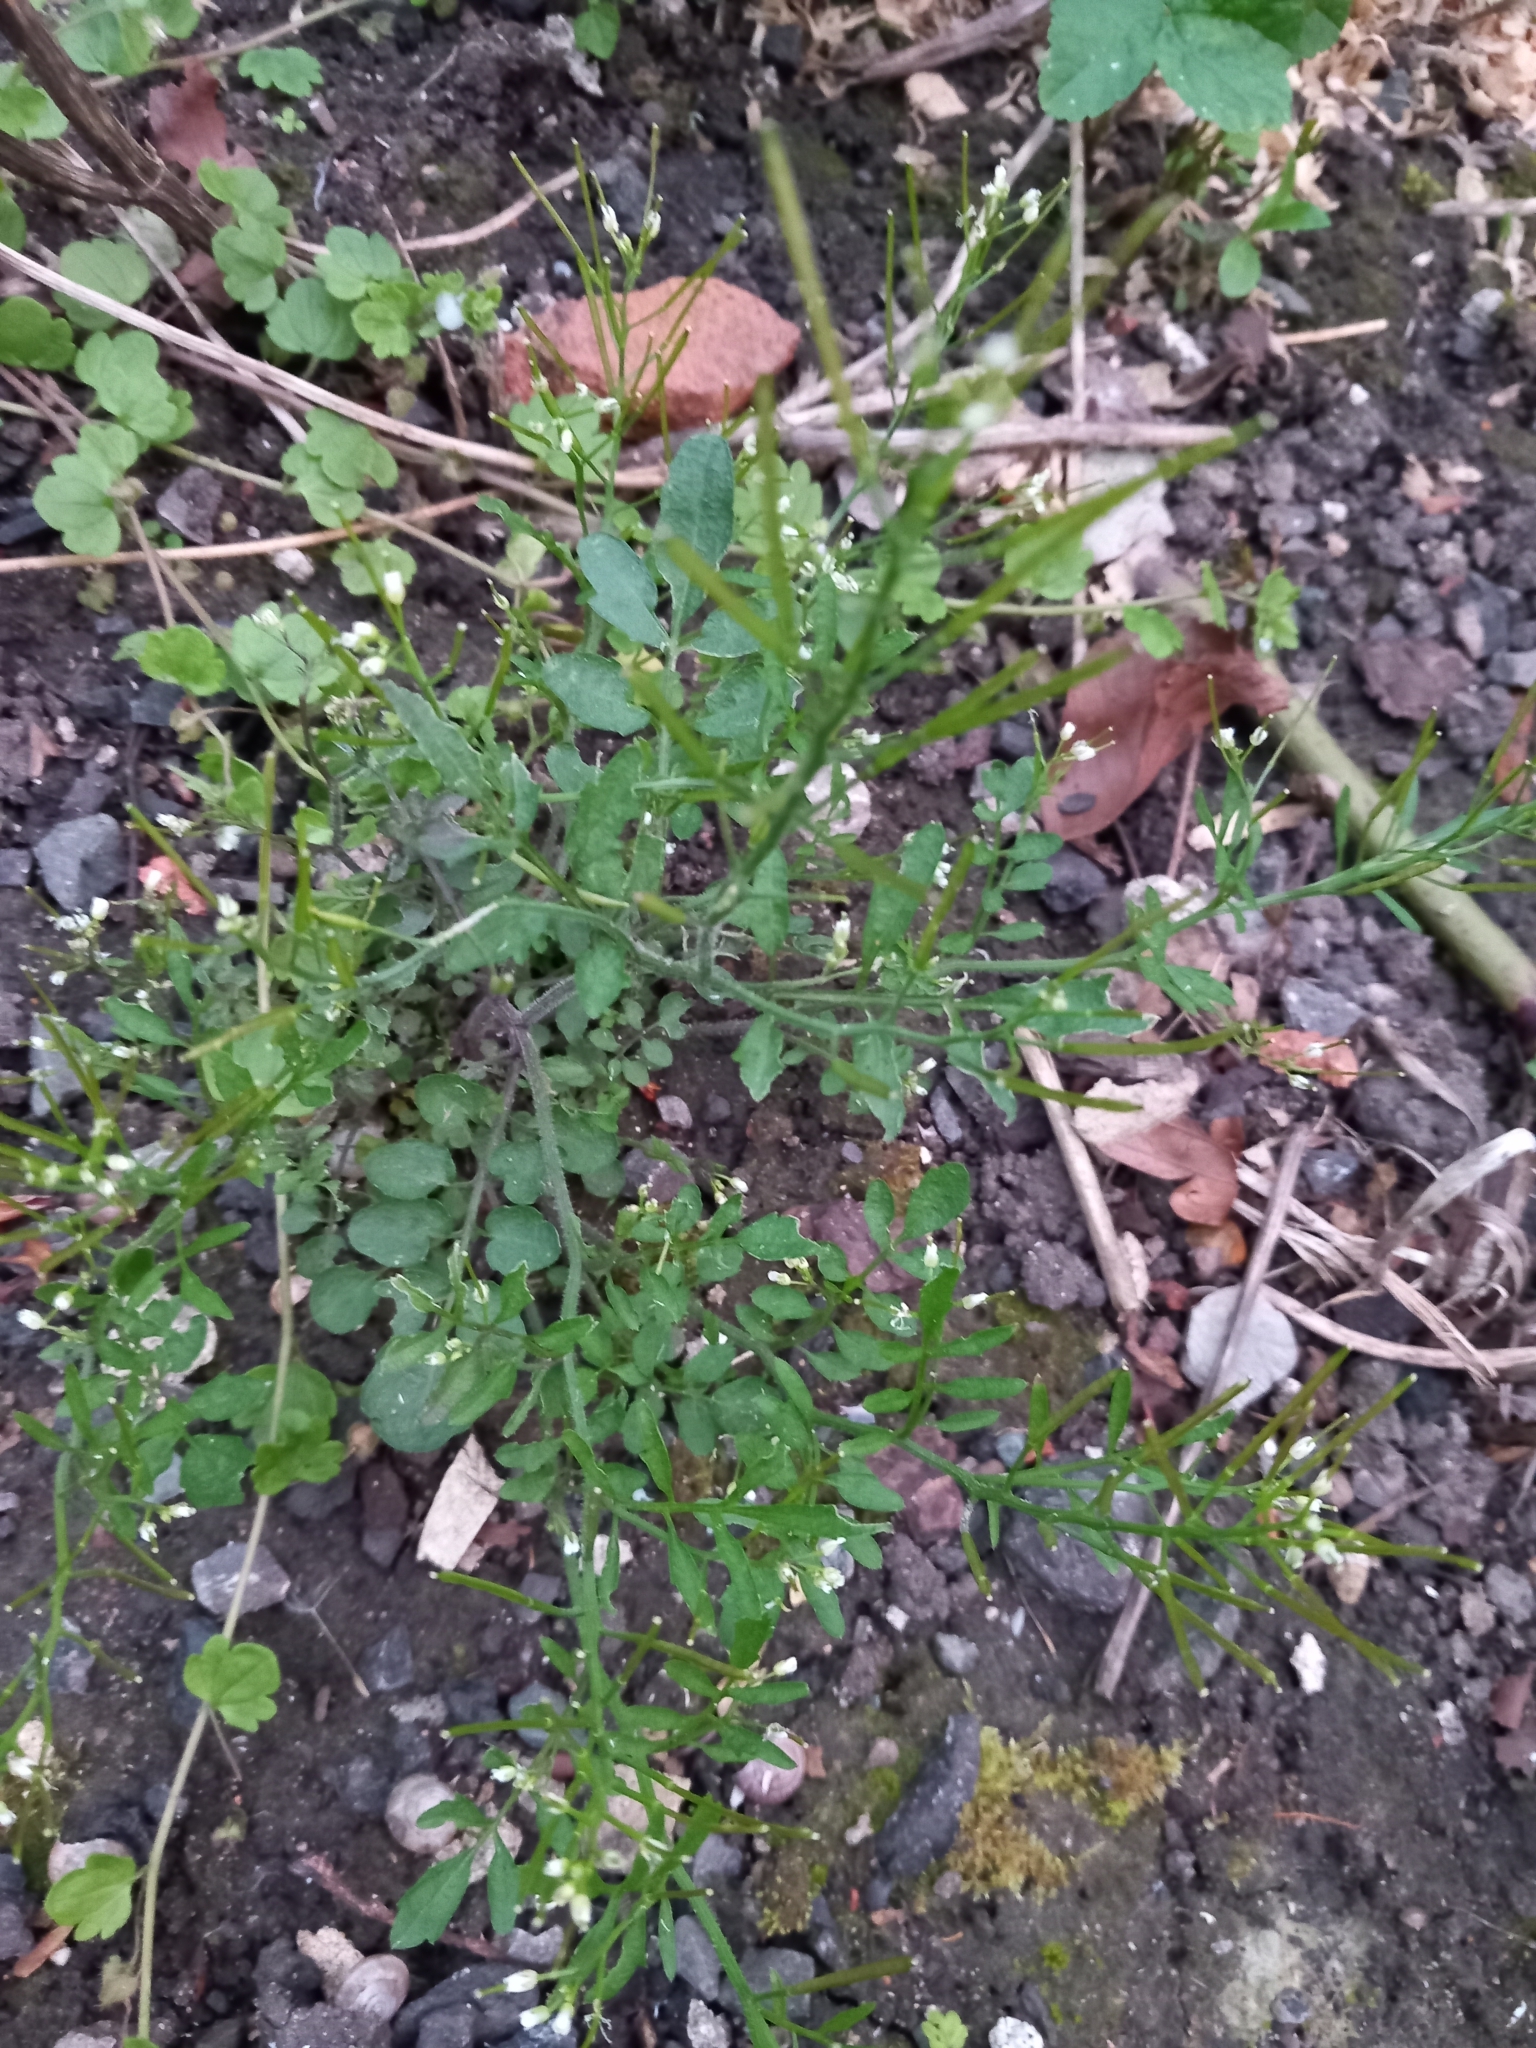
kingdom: Plantae
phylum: Tracheophyta
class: Magnoliopsida
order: Brassicales
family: Brassicaceae
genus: Cardamine
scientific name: Cardamine flexuosa
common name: Woodland bittercress
